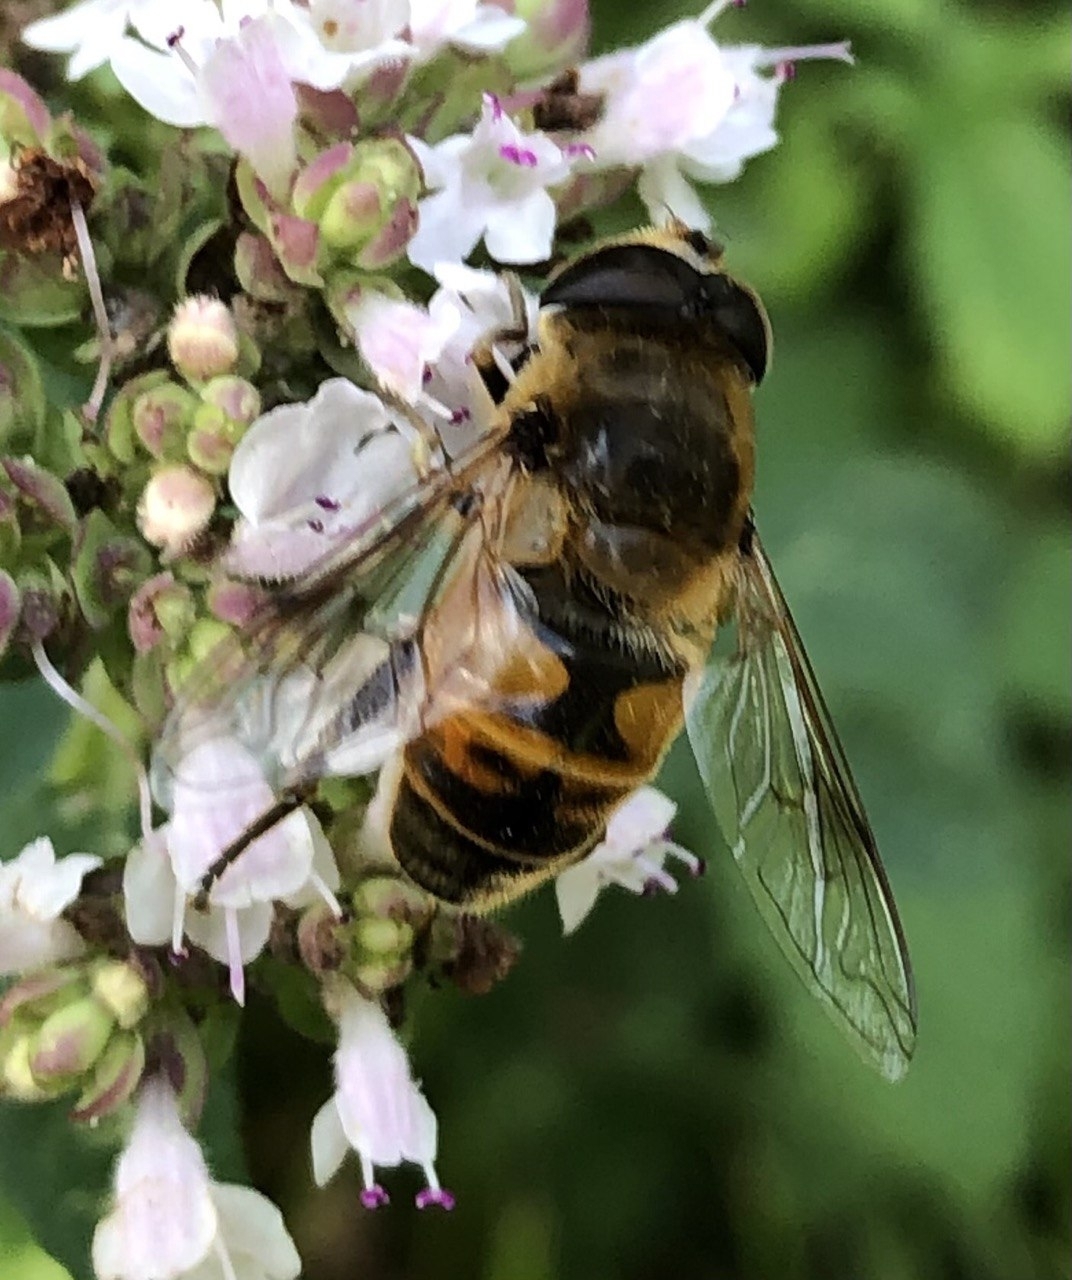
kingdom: Animalia
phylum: Arthropoda
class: Insecta
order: Diptera
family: Syrphidae
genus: Eristalis
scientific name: Eristalis tenax
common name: Drone fly
